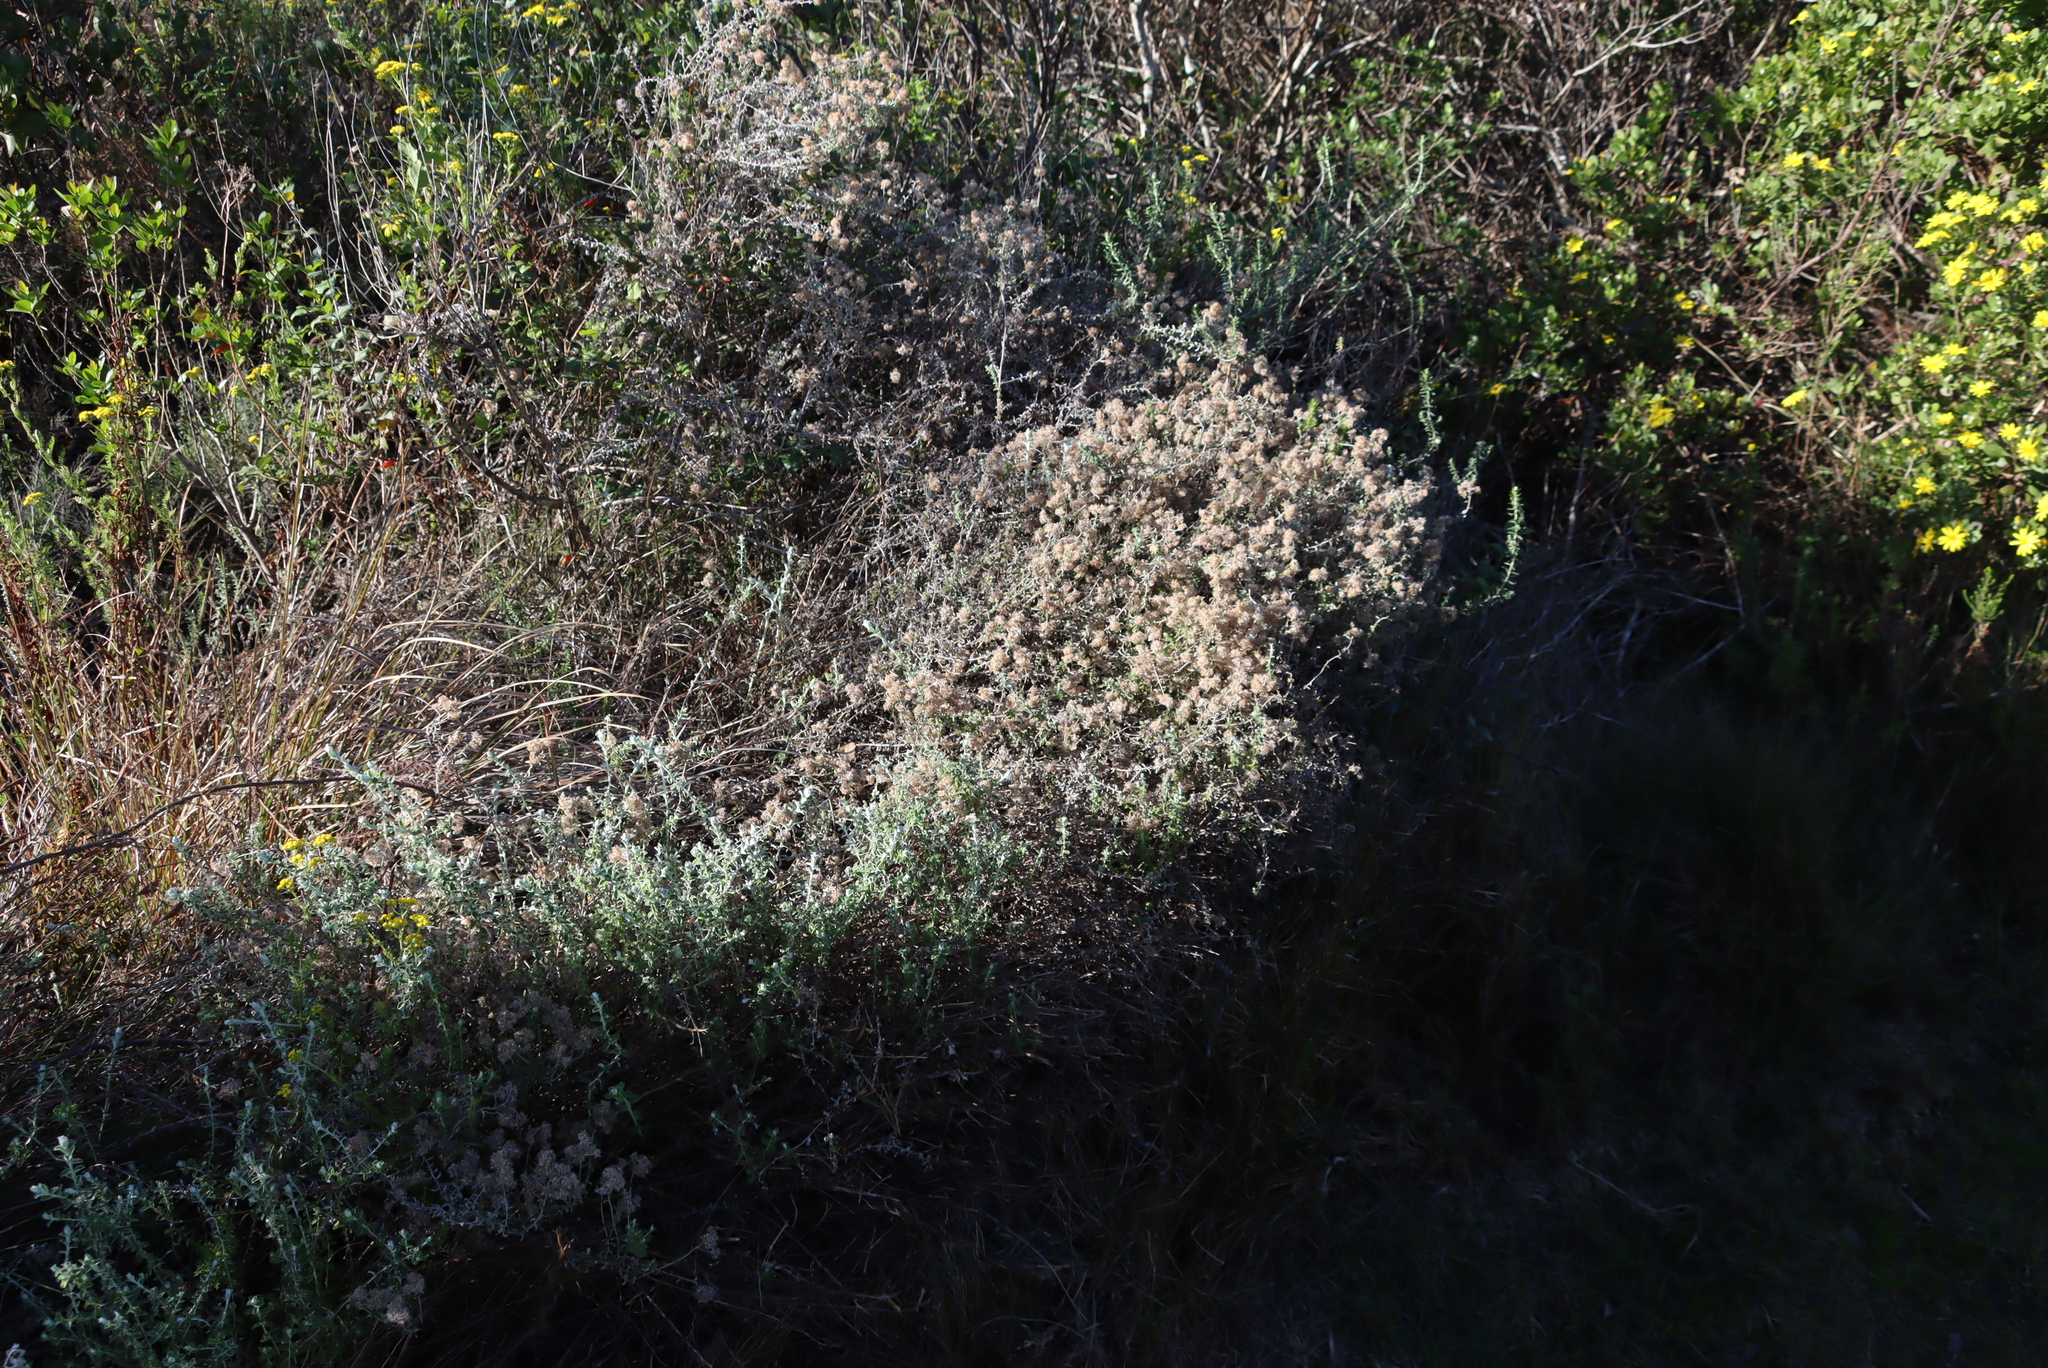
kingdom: Plantae
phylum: Tracheophyta
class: Magnoliopsida
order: Asterales
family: Asteraceae
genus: Plecostachys
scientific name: Plecostachys serpyllifolia
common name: Petite licorice
